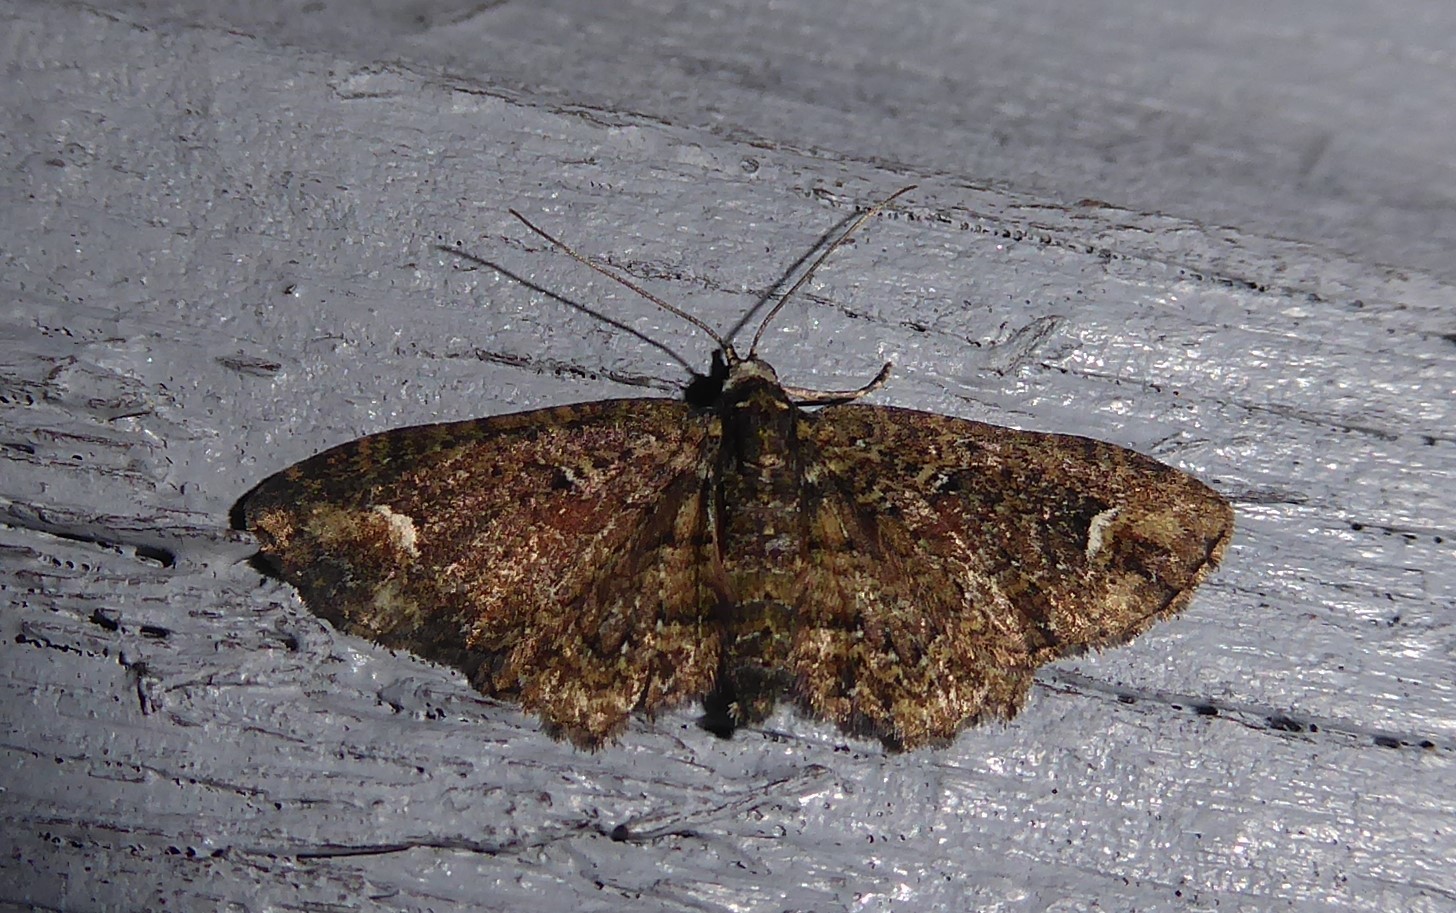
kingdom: Animalia
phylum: Arthropoda
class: Insecta
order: Lepidoptera
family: Geometridae
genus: Pasiphilodes
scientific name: Pasiphilodes testulata
